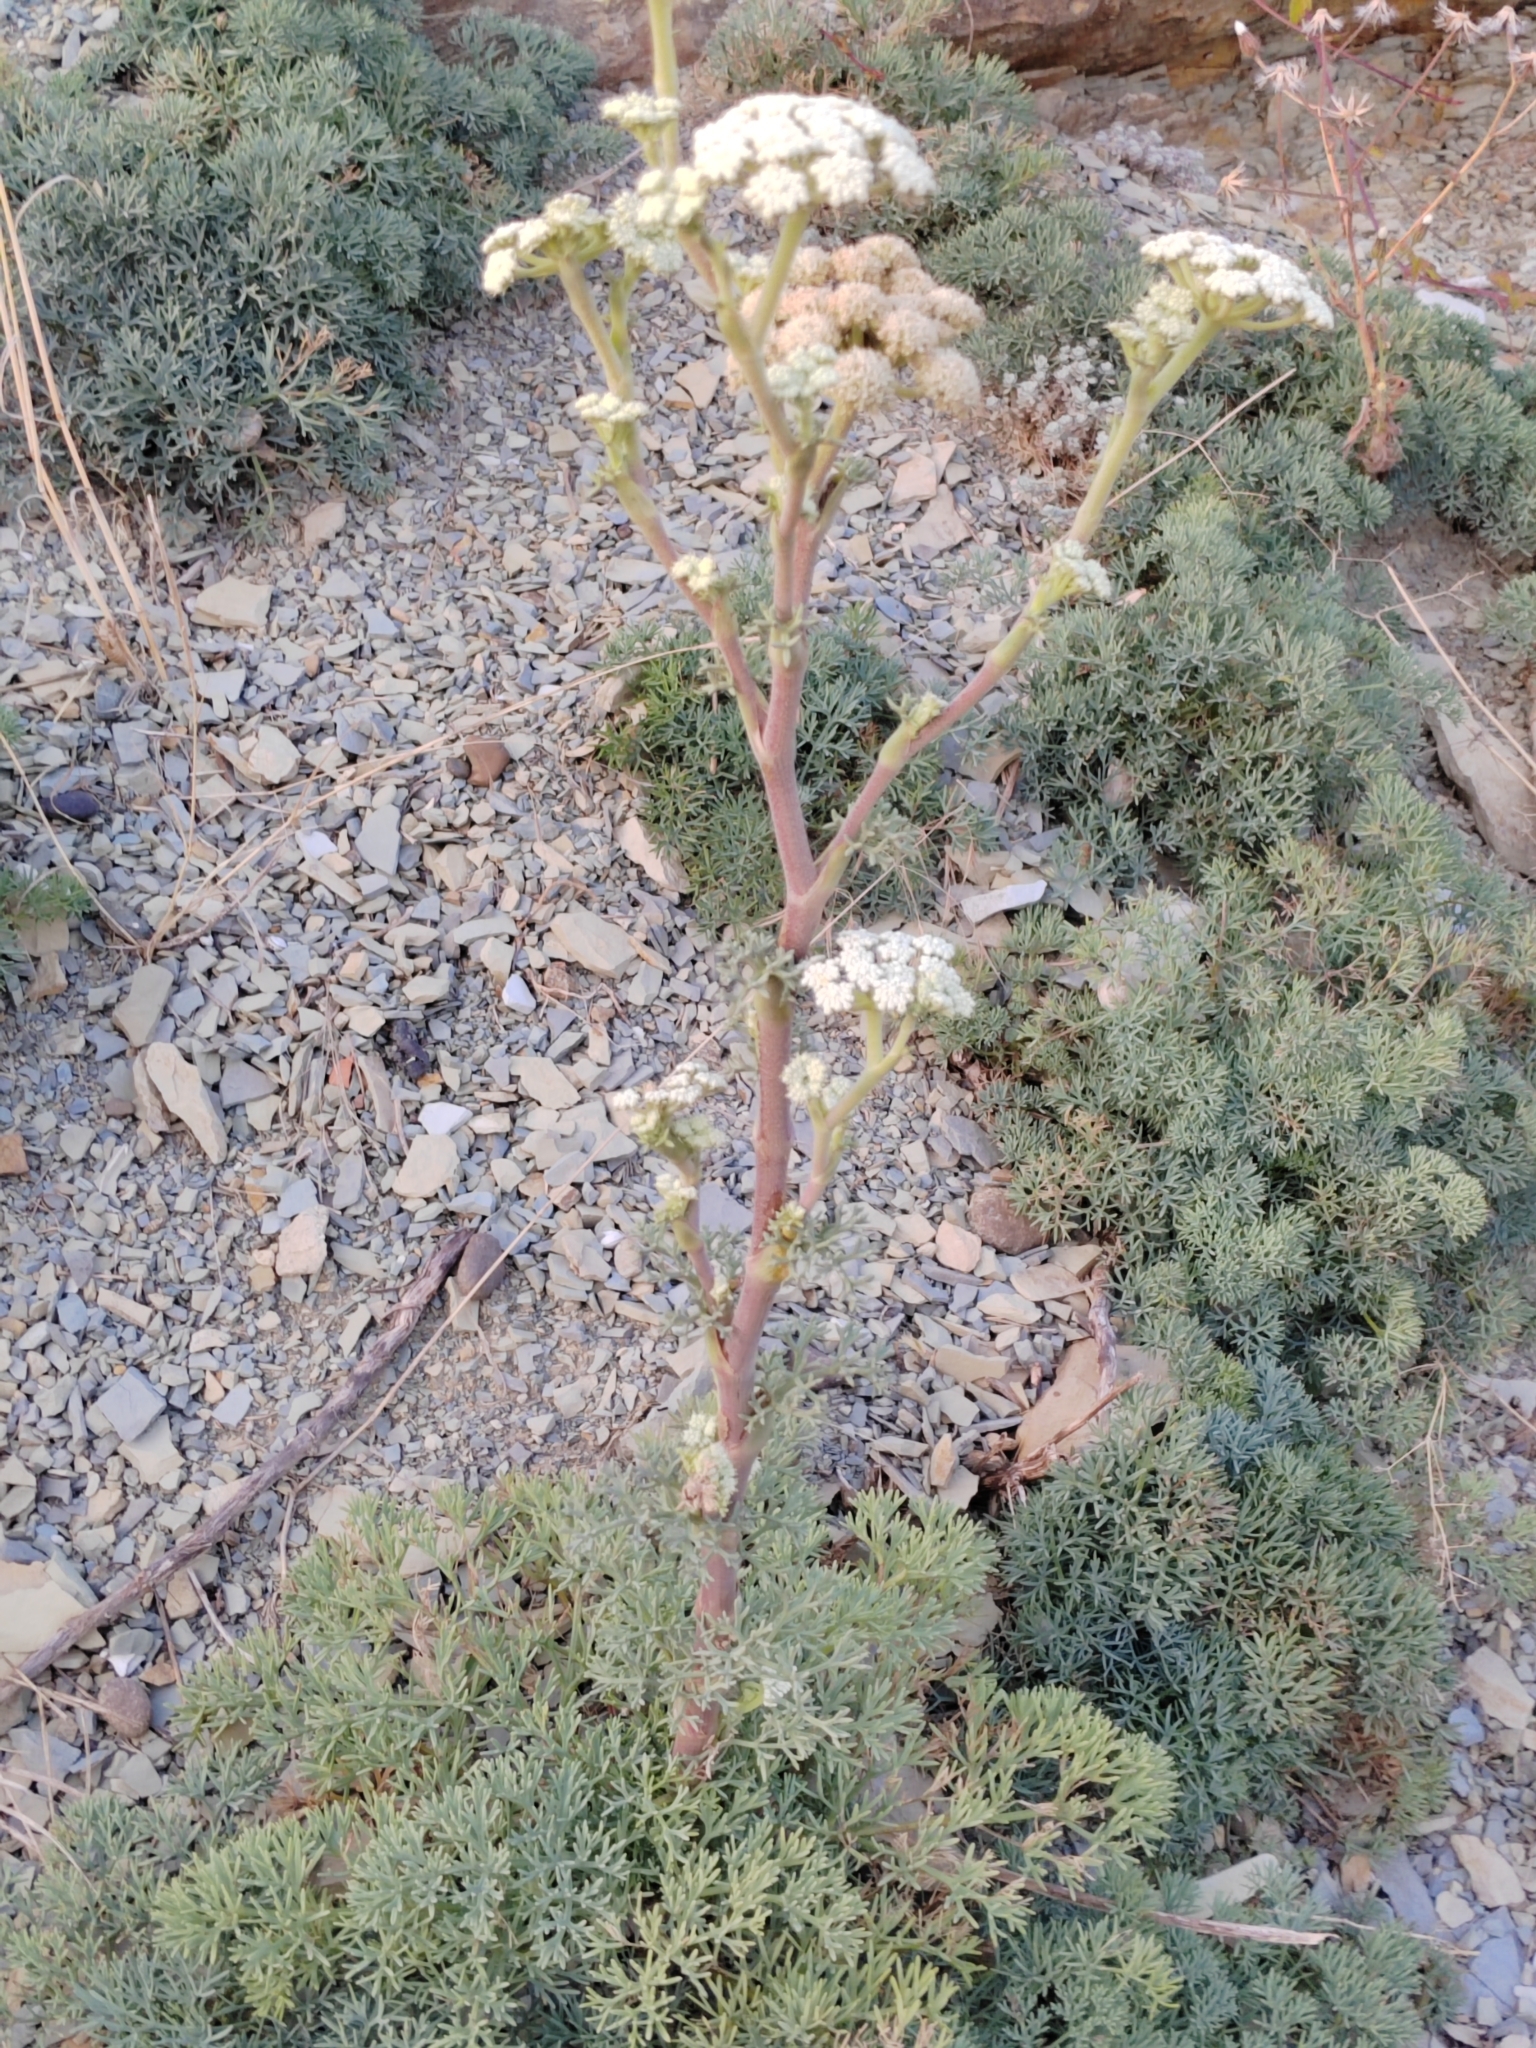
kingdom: Plantae
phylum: Tracheophyta
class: Magnoliopsida
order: Apiales
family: Apiaceae
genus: Seseli
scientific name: Seseli ponticum
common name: Pontic seseli
